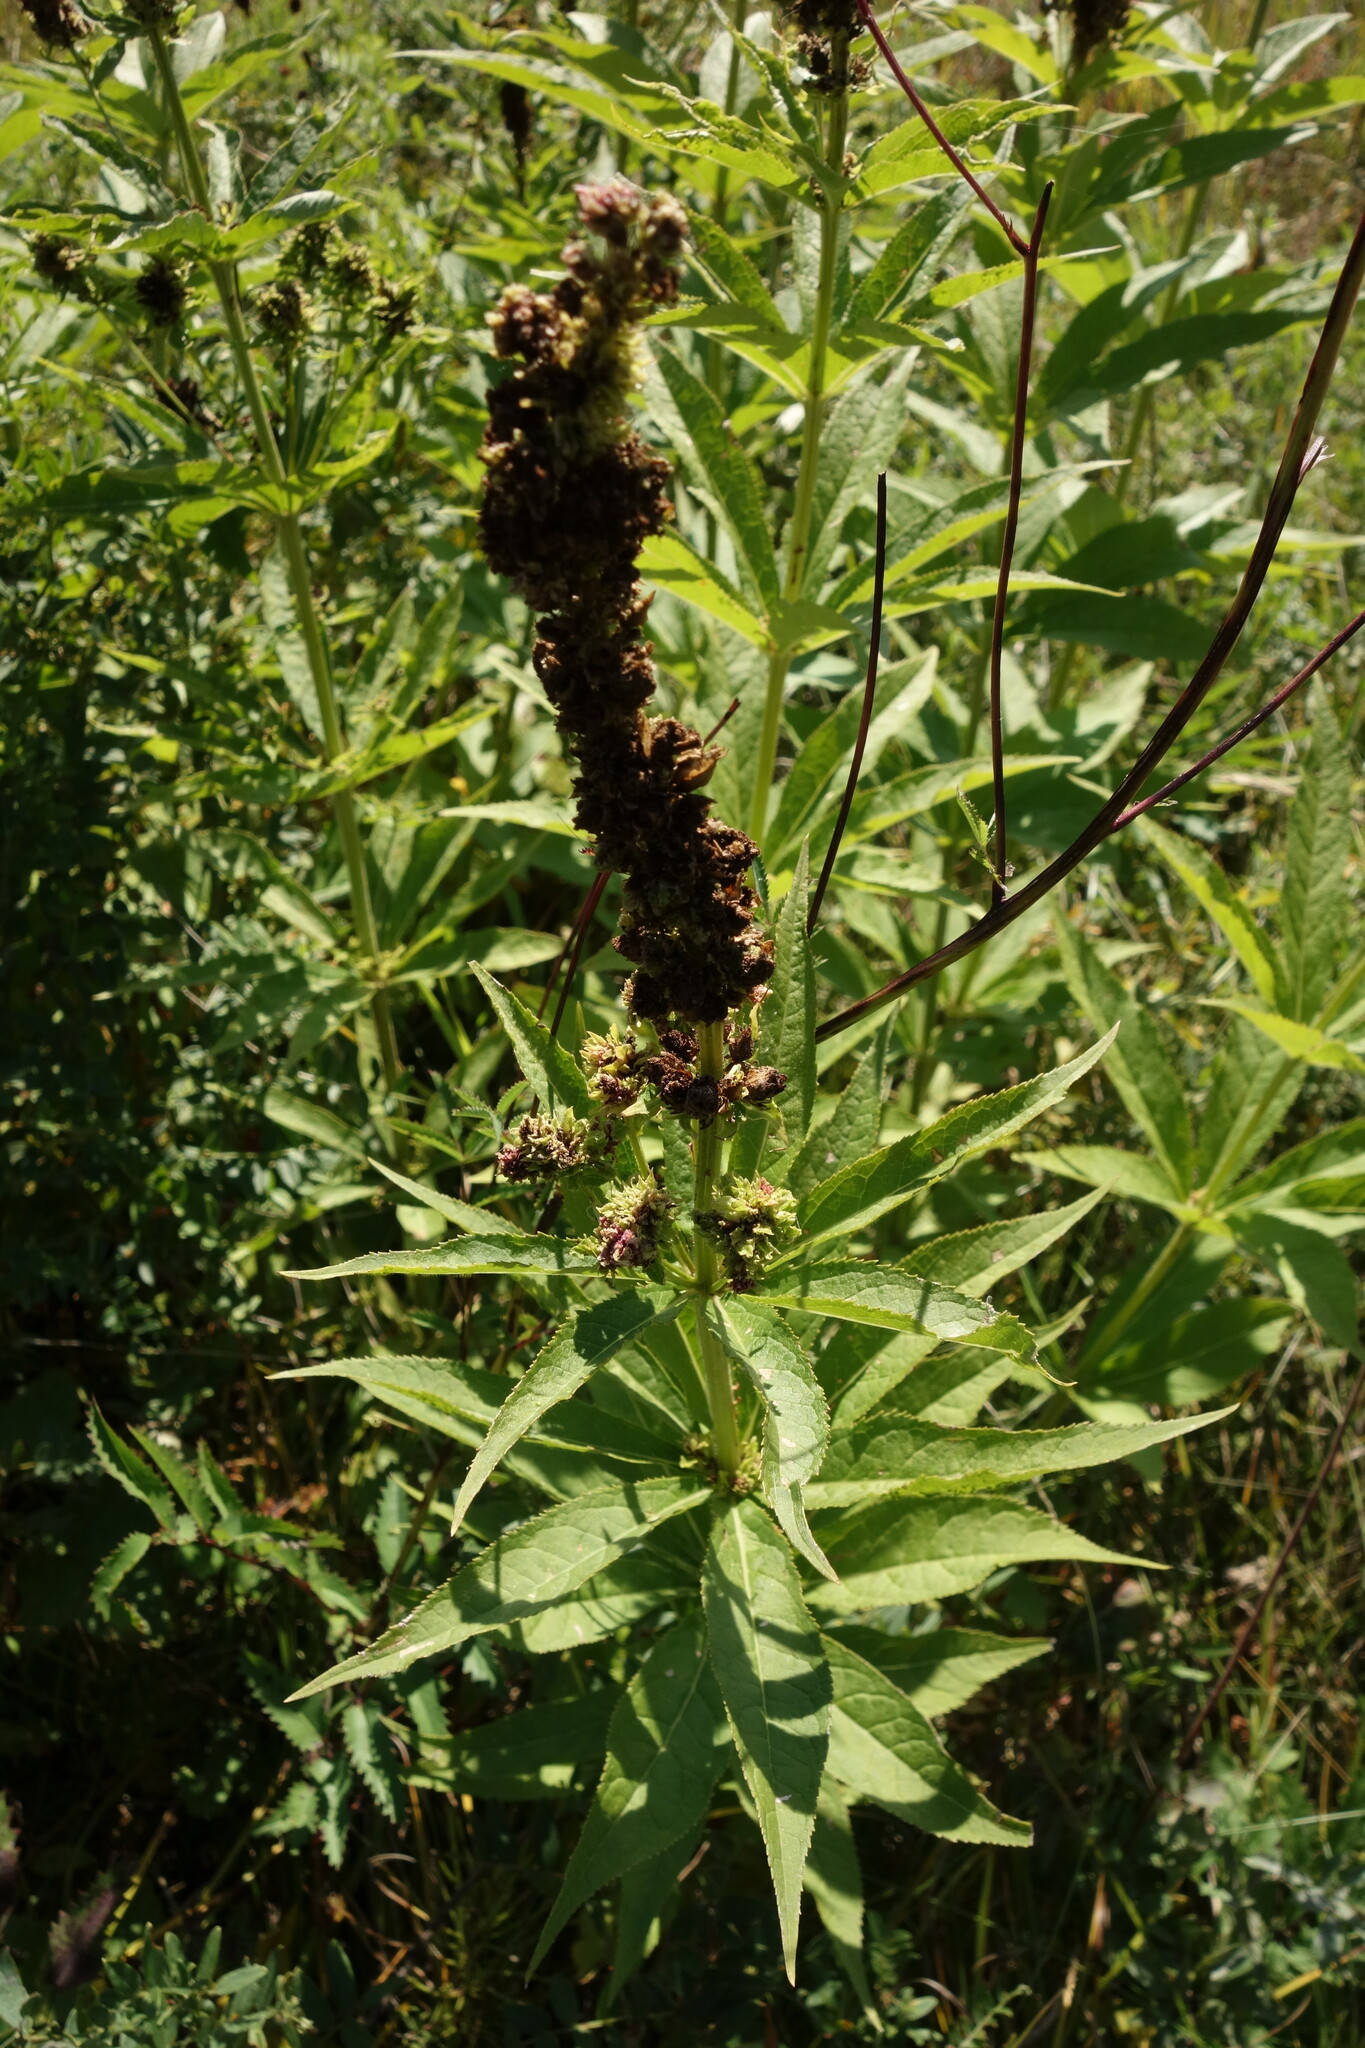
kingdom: Plantae
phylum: Tracheophyta
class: Magnoliopsida
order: Lamiales
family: Plantaginaceae
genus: Veronicastrum
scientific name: Veronicastrum sibiricum
